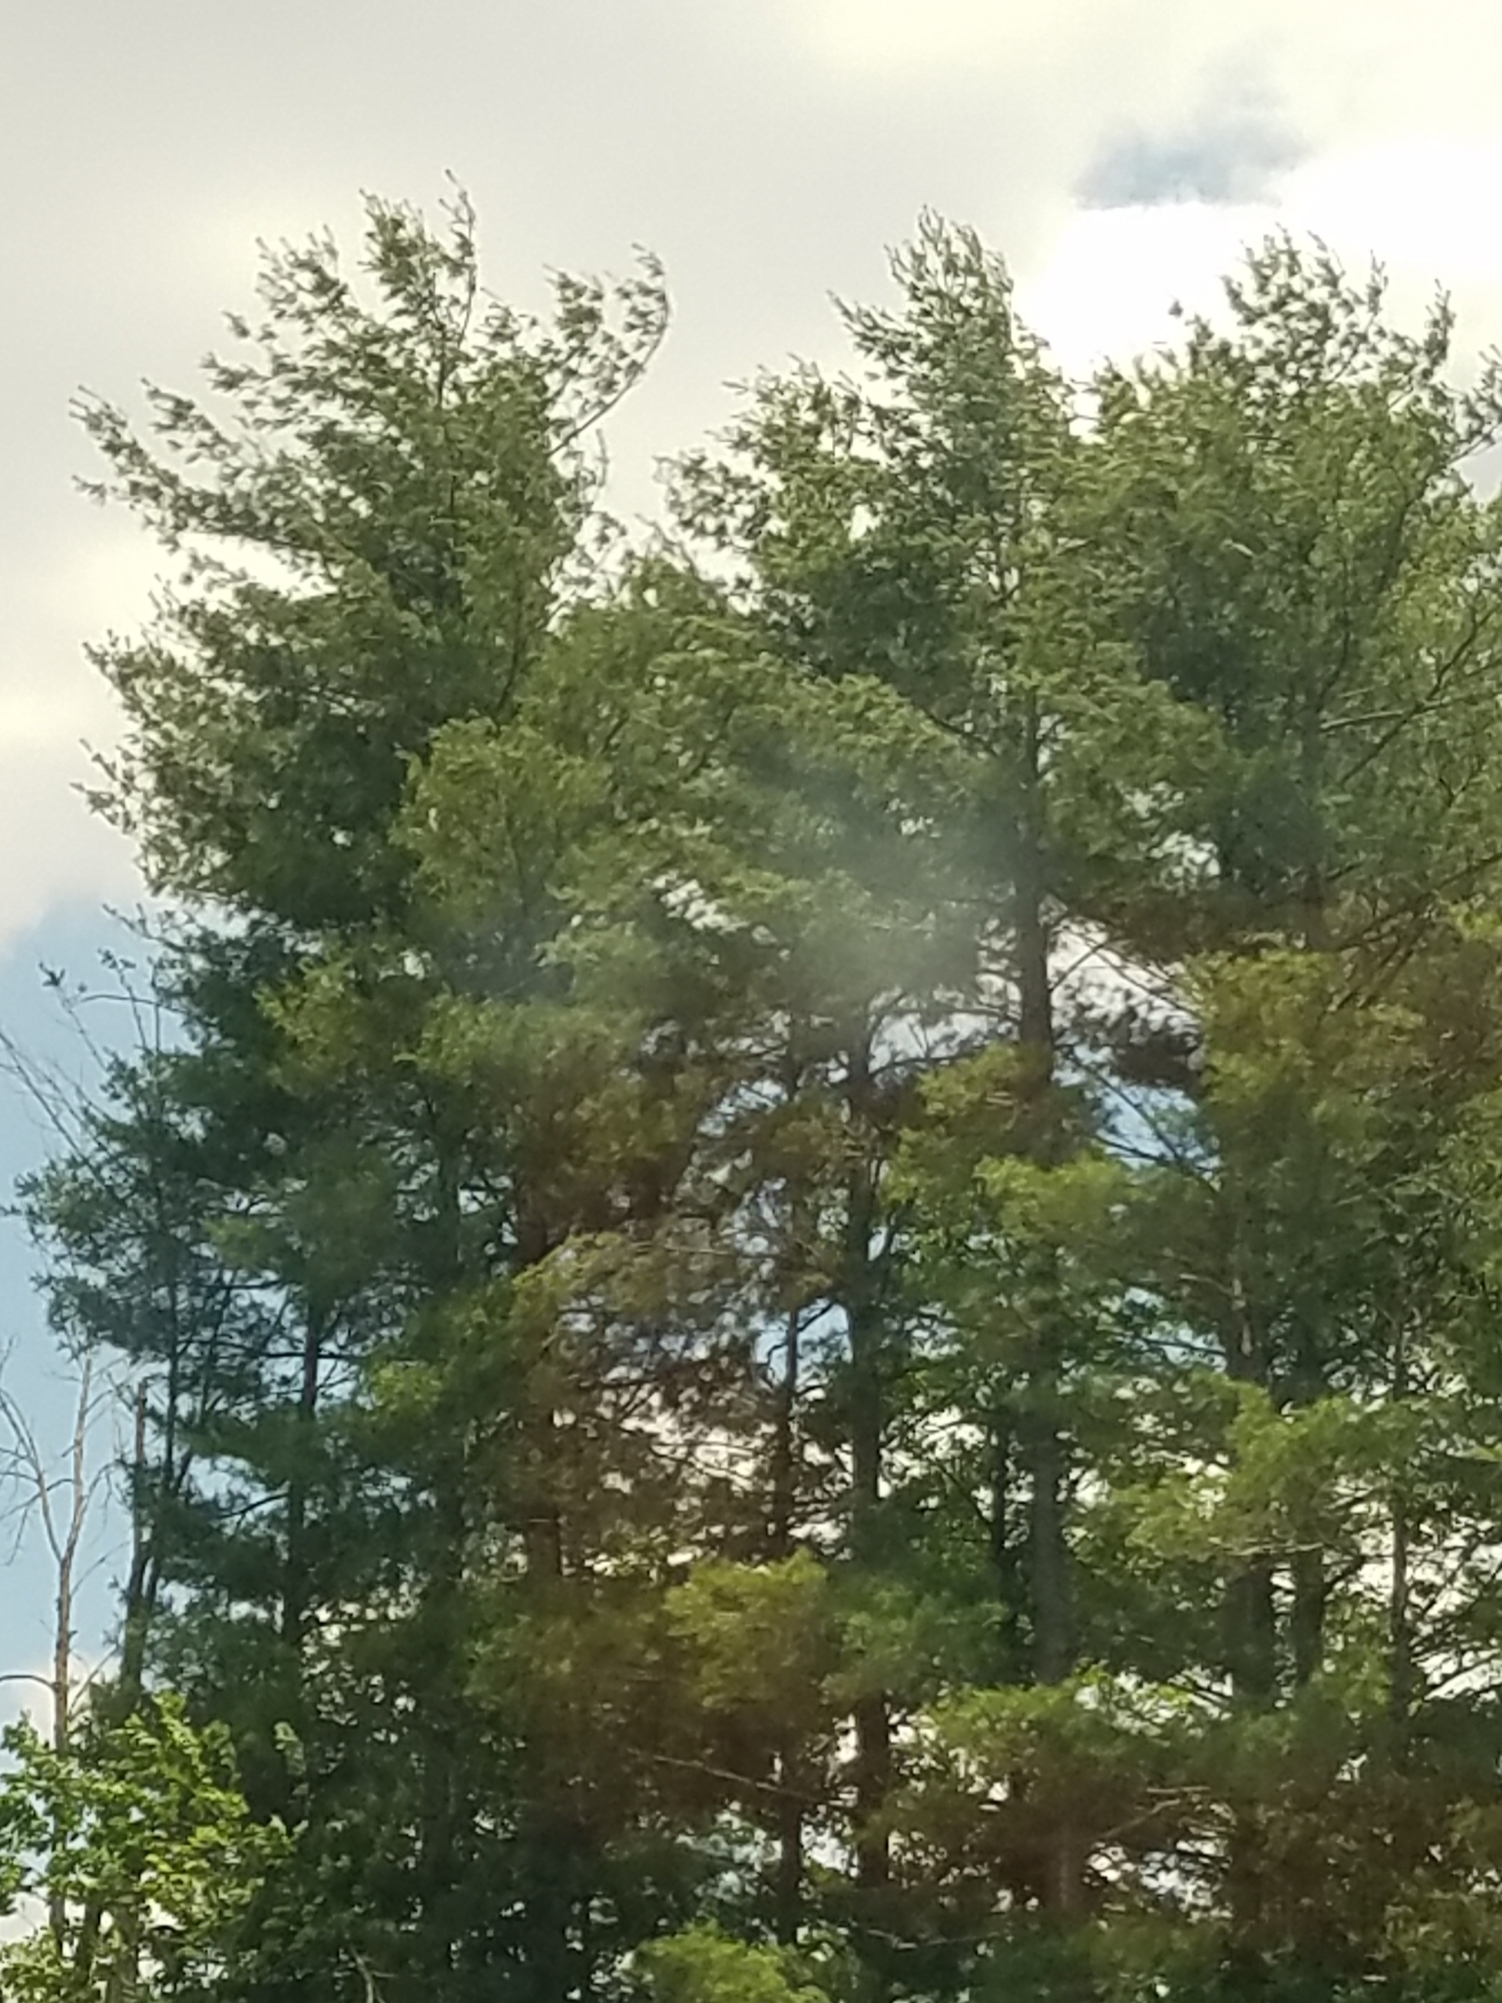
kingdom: Plantae
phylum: Tracheophyta
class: Pinopsida
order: Pinales
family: Pinaceae
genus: Pinus
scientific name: Pinus strobus
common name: Weymouth pine
